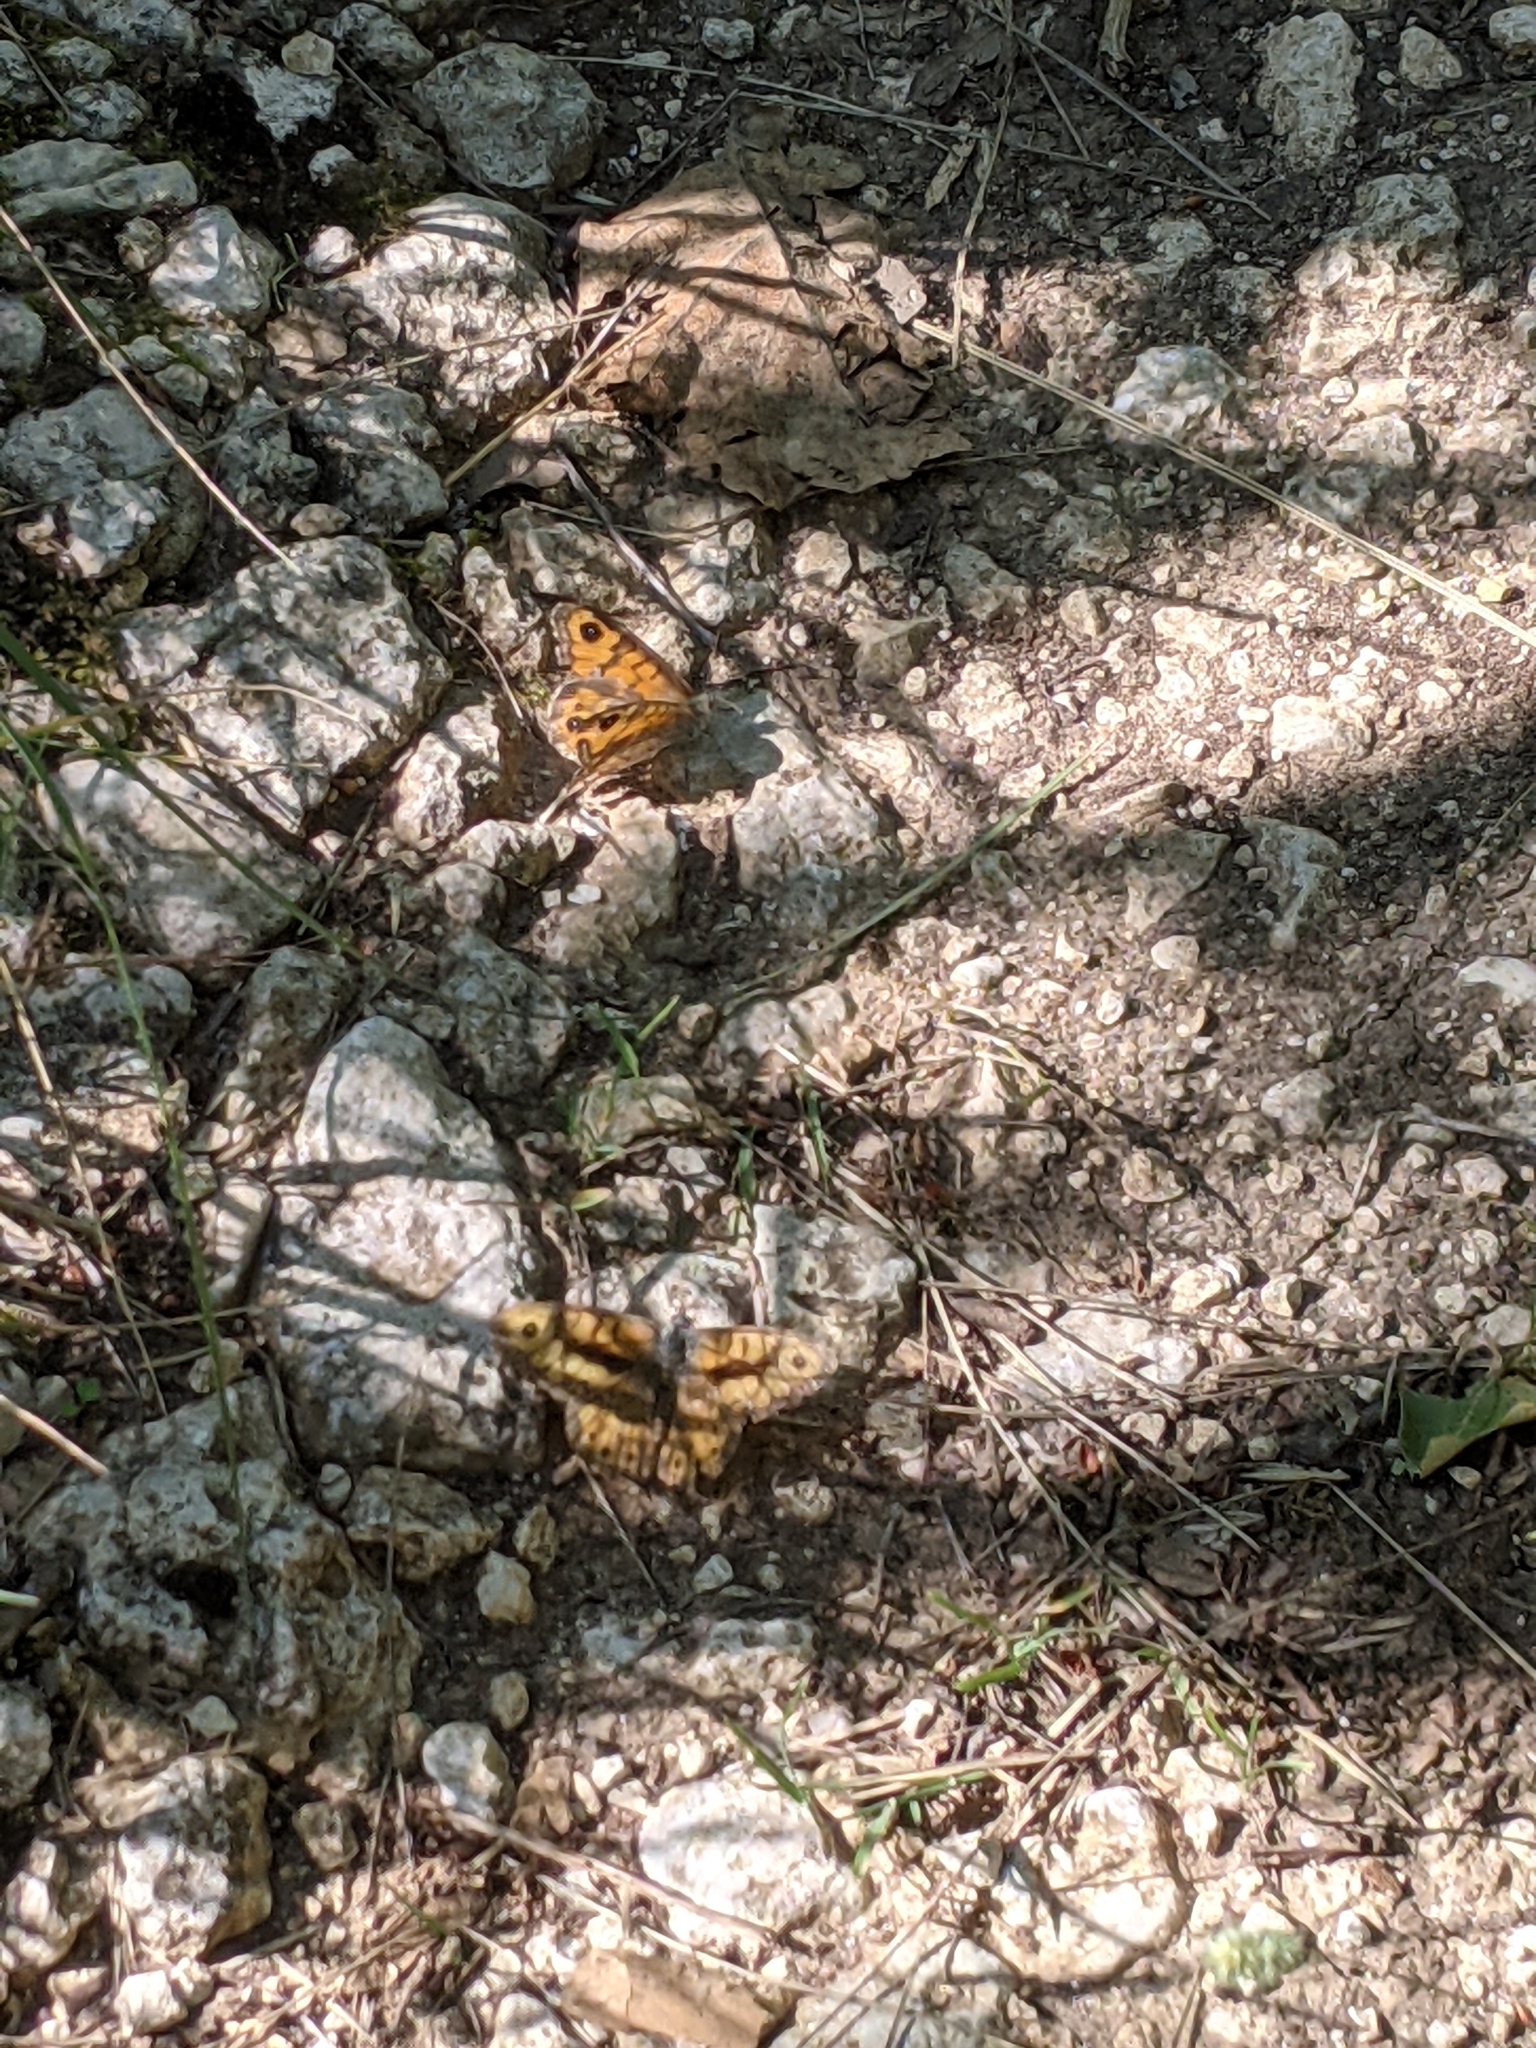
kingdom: Animalia
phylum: Arthropoda
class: Insecta
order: Lepidoptera
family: Nymphalidae
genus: Pararge
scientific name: Pararge Lasiommata megera
